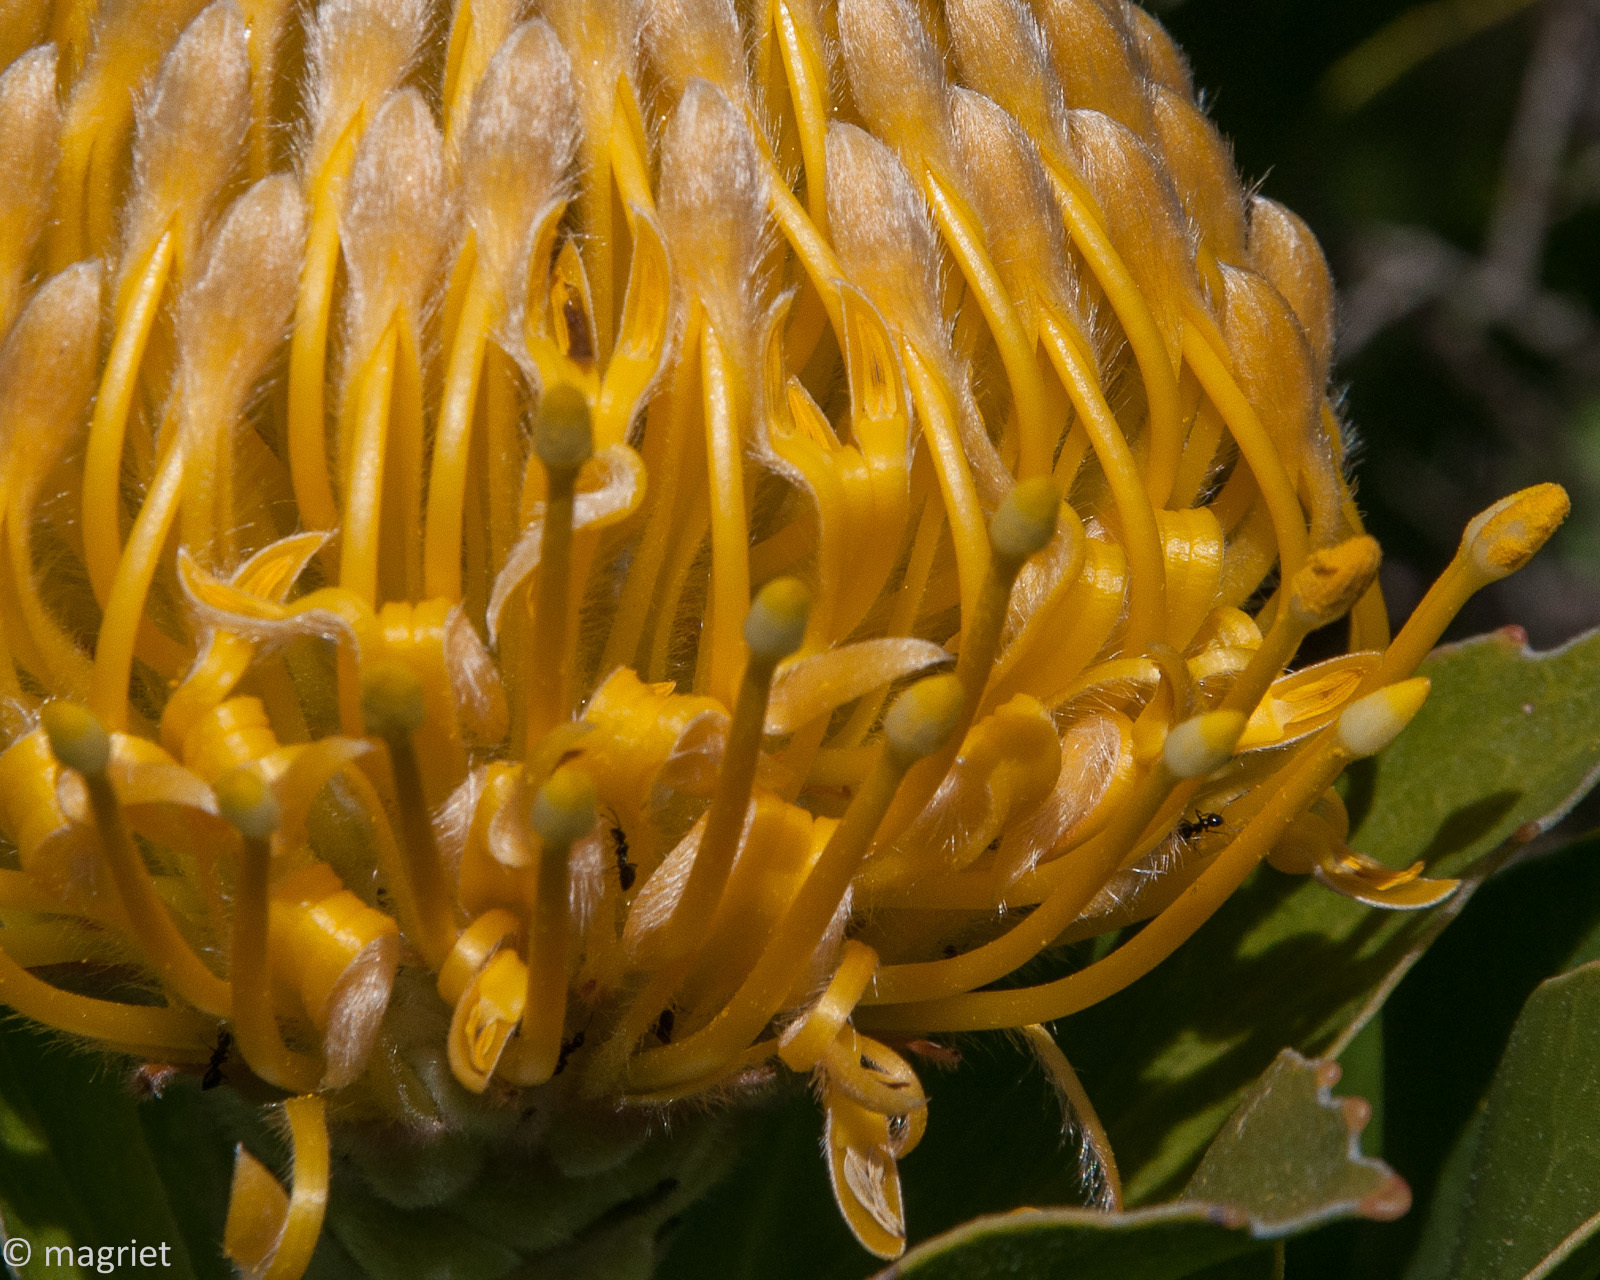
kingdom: Plantae
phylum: Tracheophyta
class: Magnoliopsida
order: Proteales
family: Proteaceae
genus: Leucospermum
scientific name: Leucospermum conocarpodendron
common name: Tree pincushion
